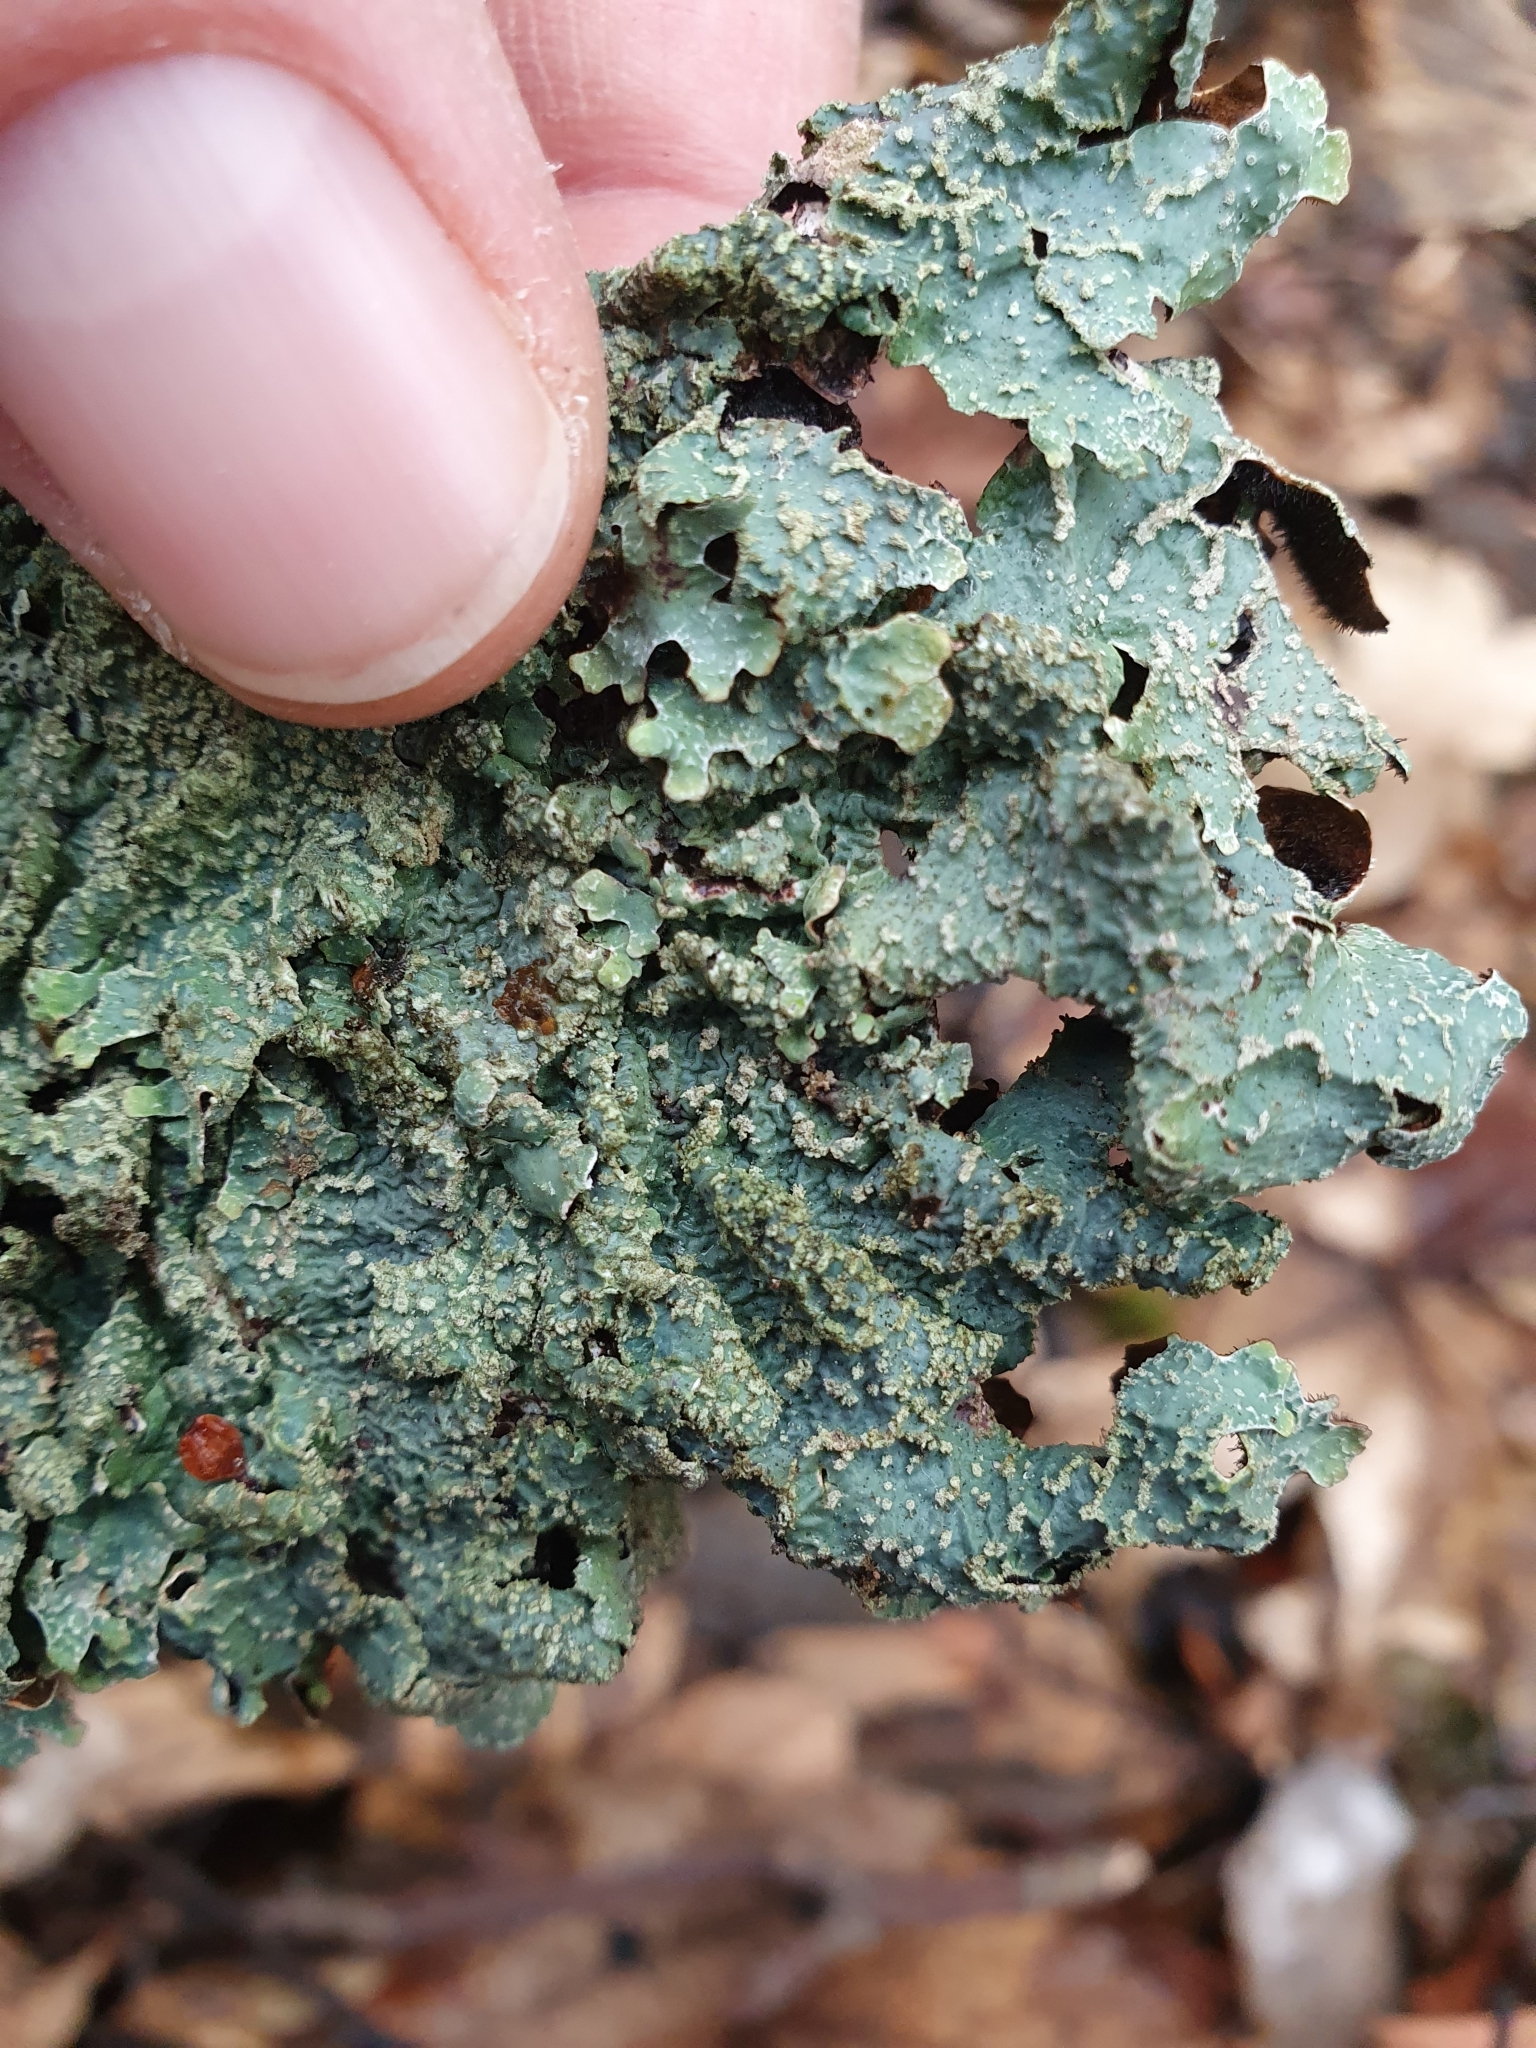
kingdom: Fungi
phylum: Ascomycota
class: Lecanoromycetes
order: Lecanorales
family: Parmeliaceae
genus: Parmelia
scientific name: Parmelia sulcata
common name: Netted shield lichen
